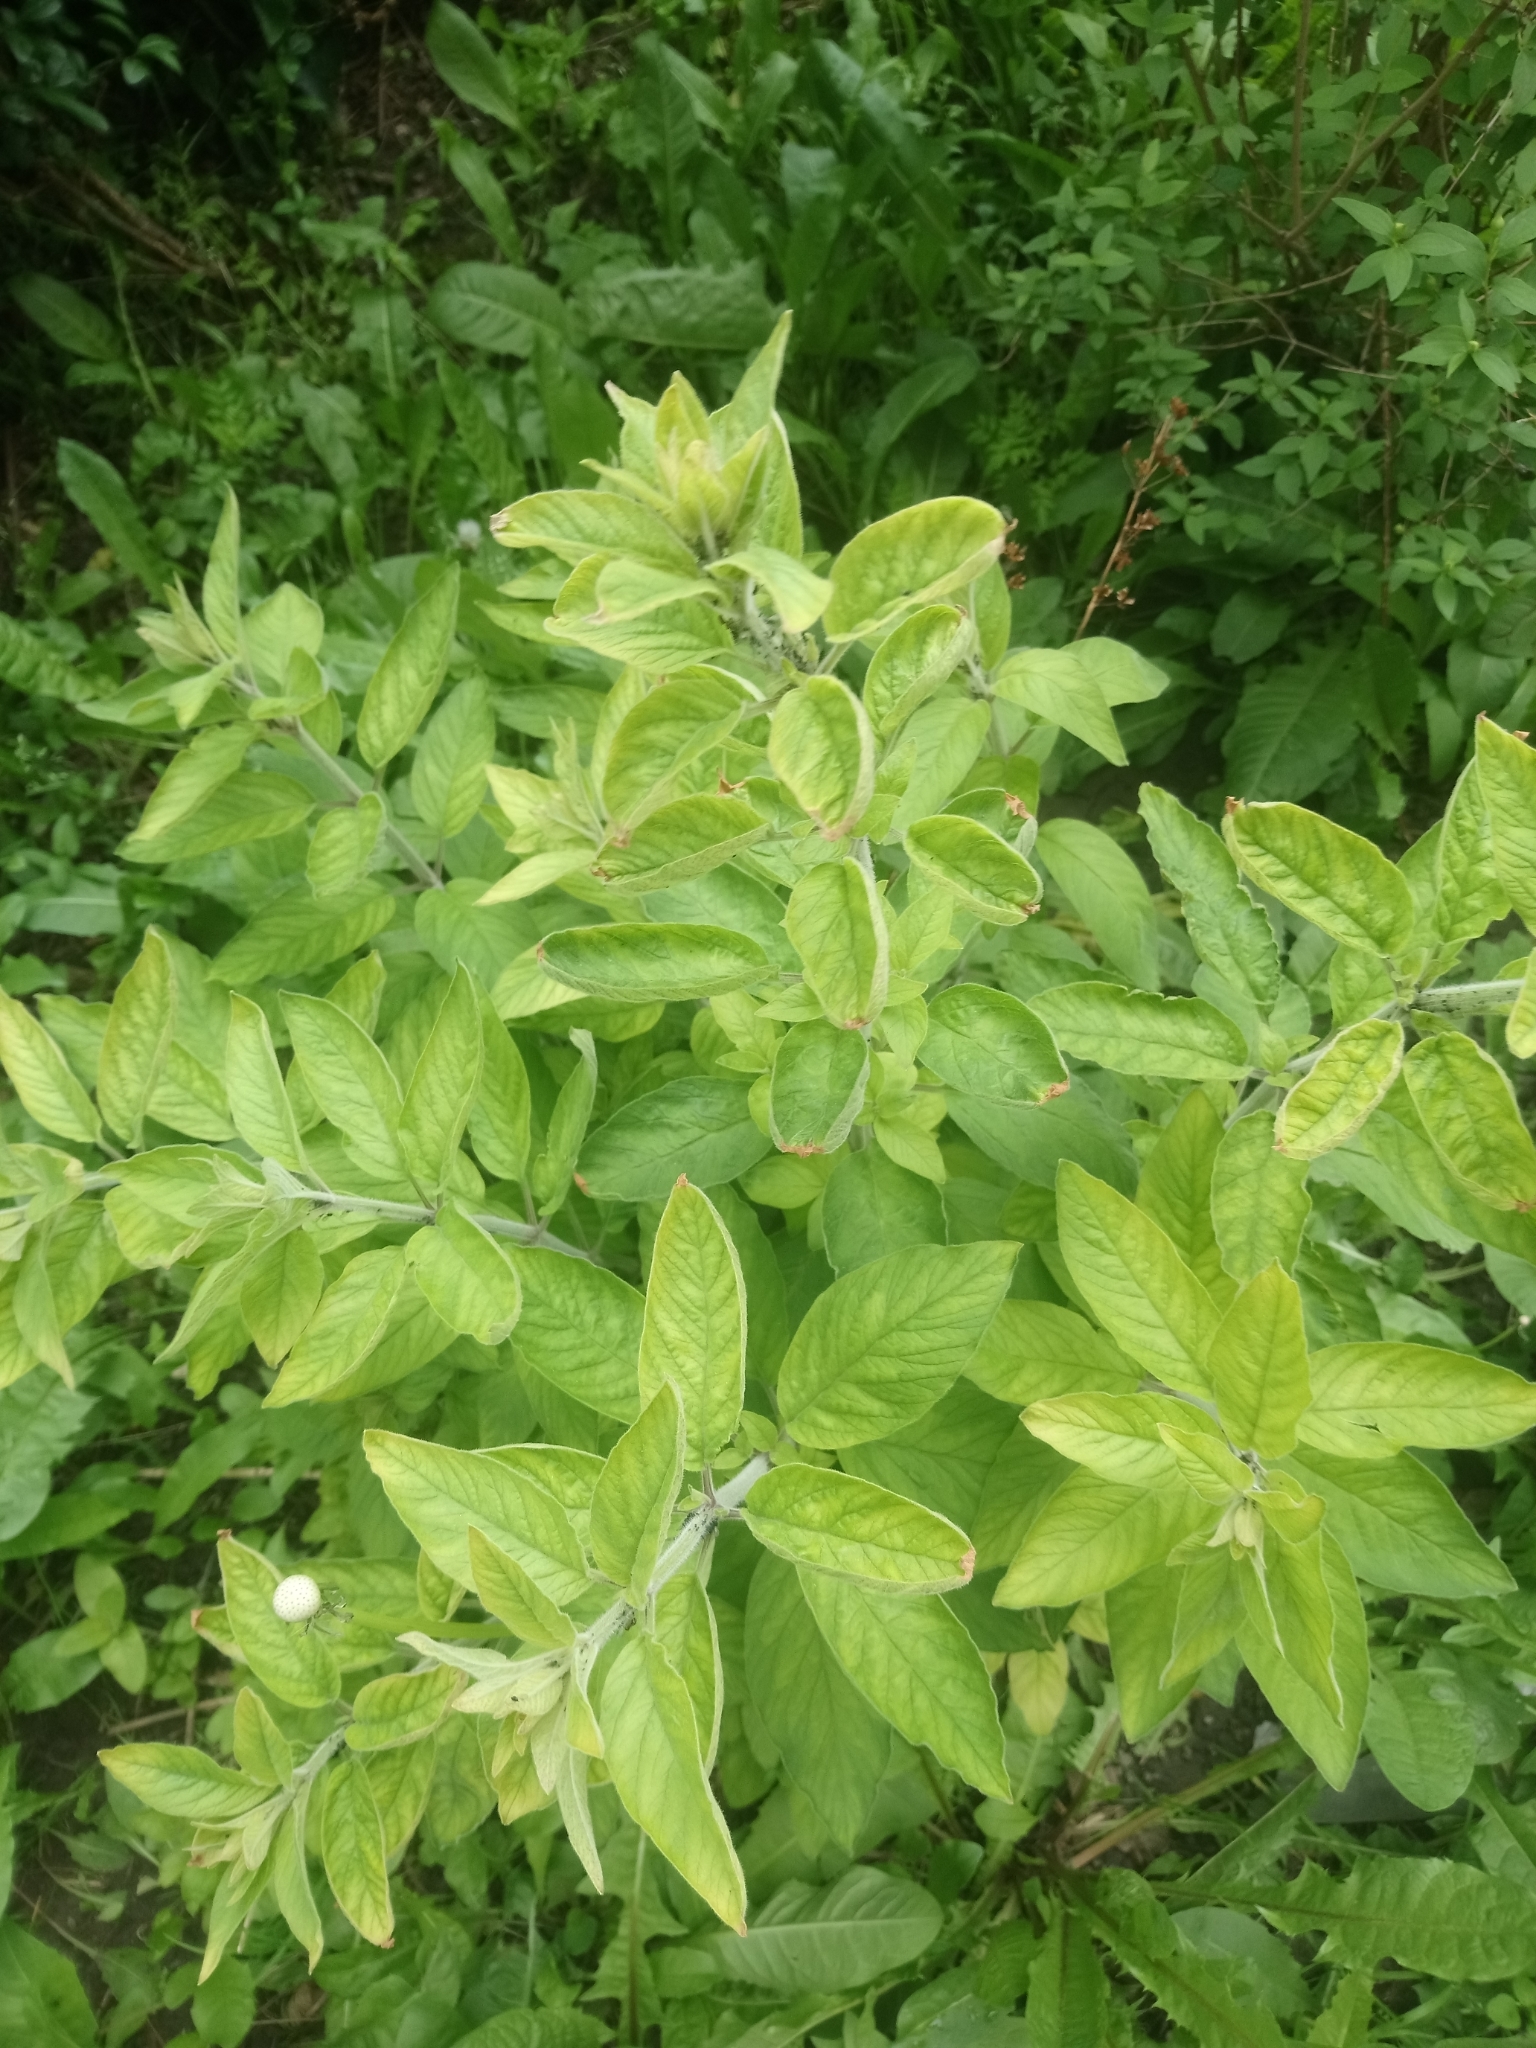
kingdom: Plantae
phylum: Tracheophyta
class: Magnoliopsida
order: Ericales
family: Primulaceae
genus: Lysimachia
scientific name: Lysimachia punctata
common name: Dotted loosestrife
